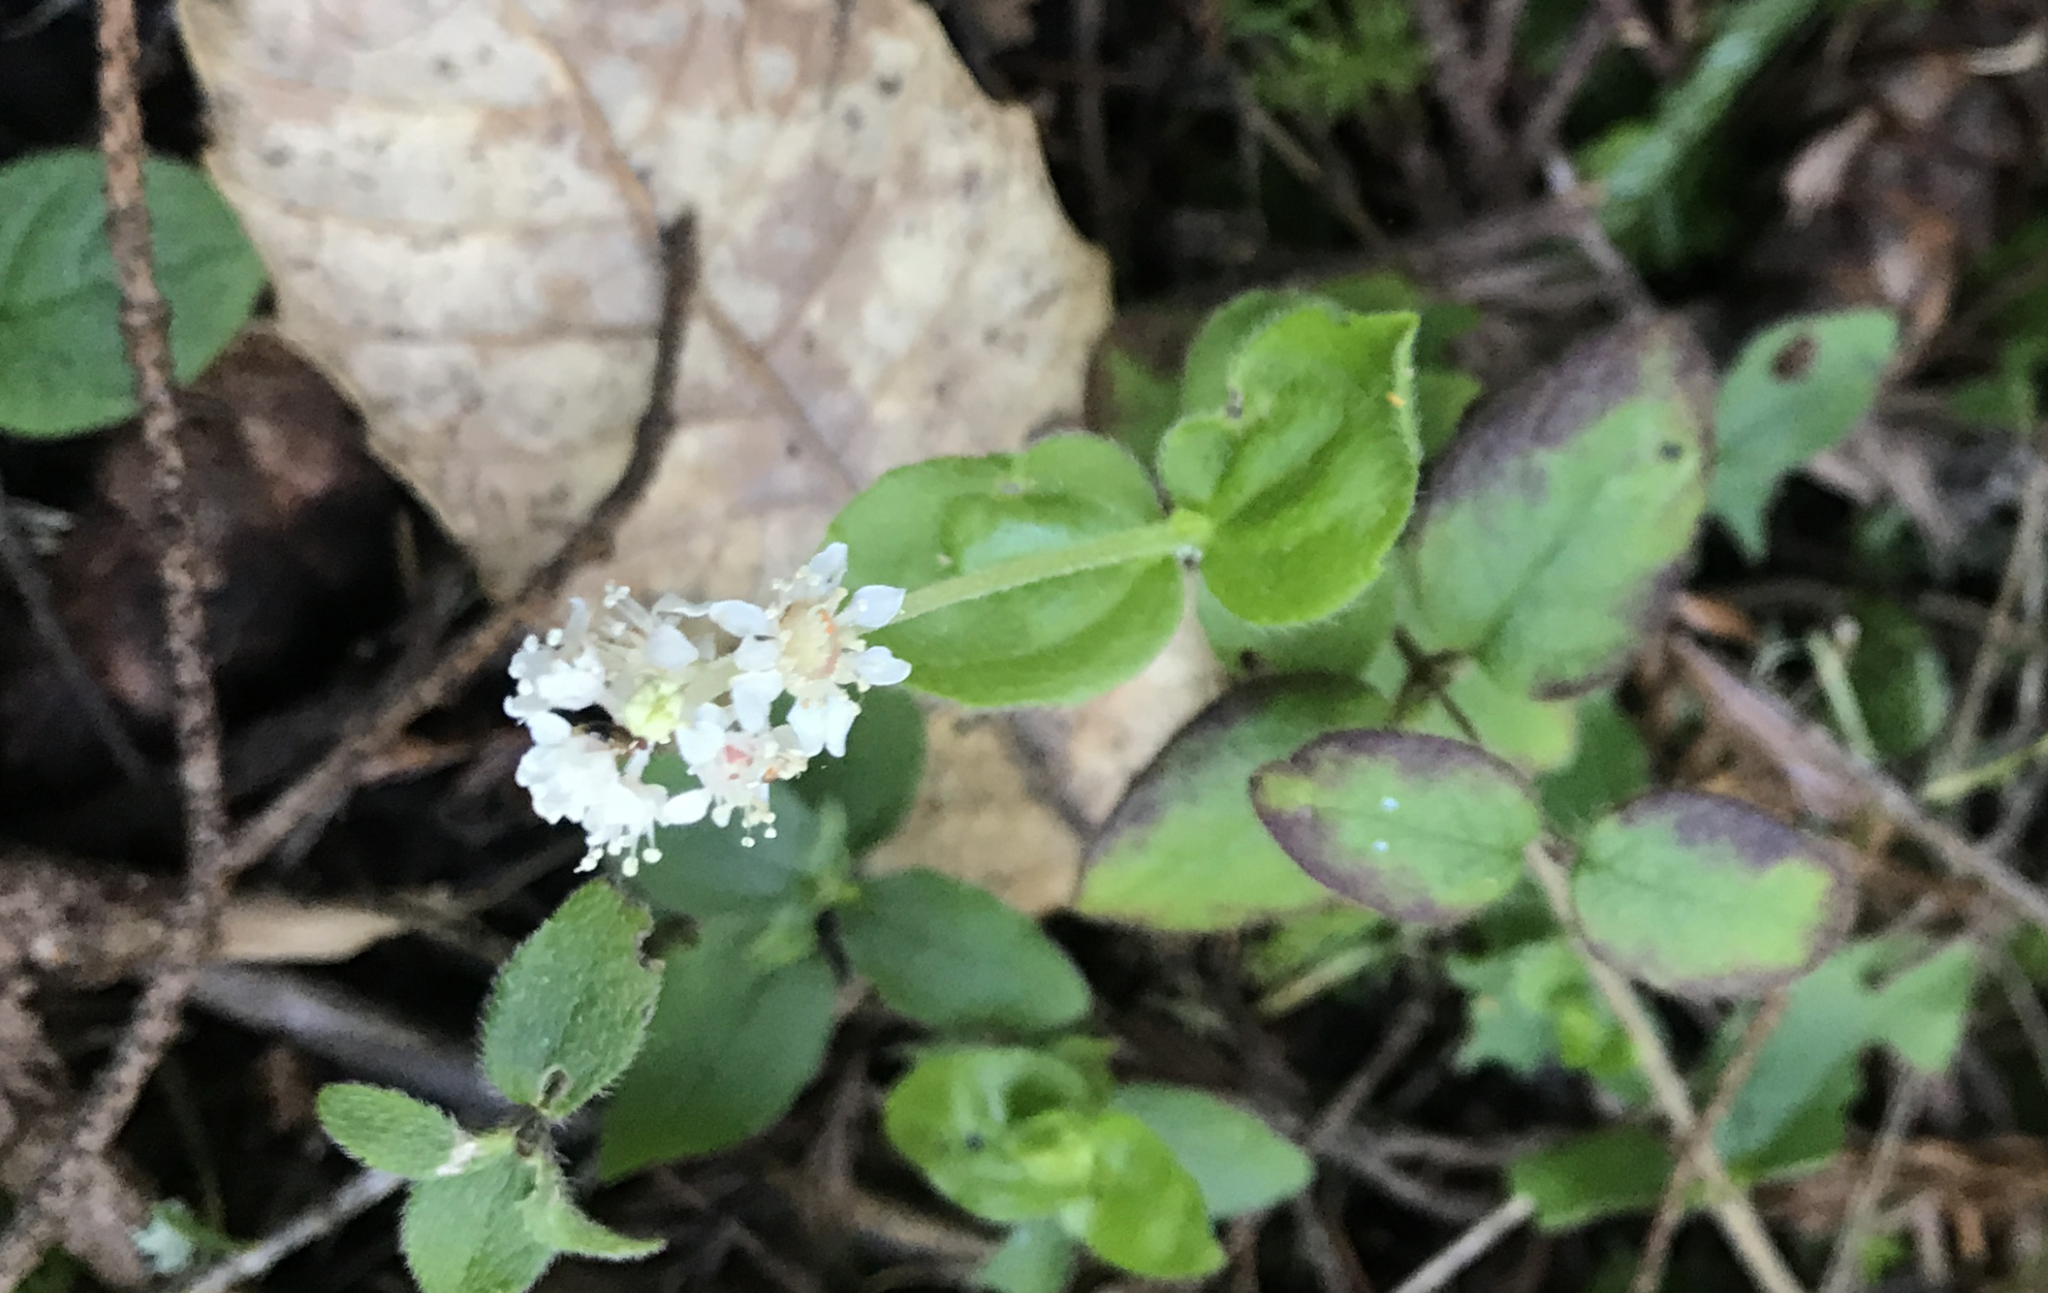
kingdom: Plantae
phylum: Tracheophyta
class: Magnoliopsida
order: Cornales
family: Hydrangeaceae
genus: Whipplea
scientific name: Whipplea modesta
